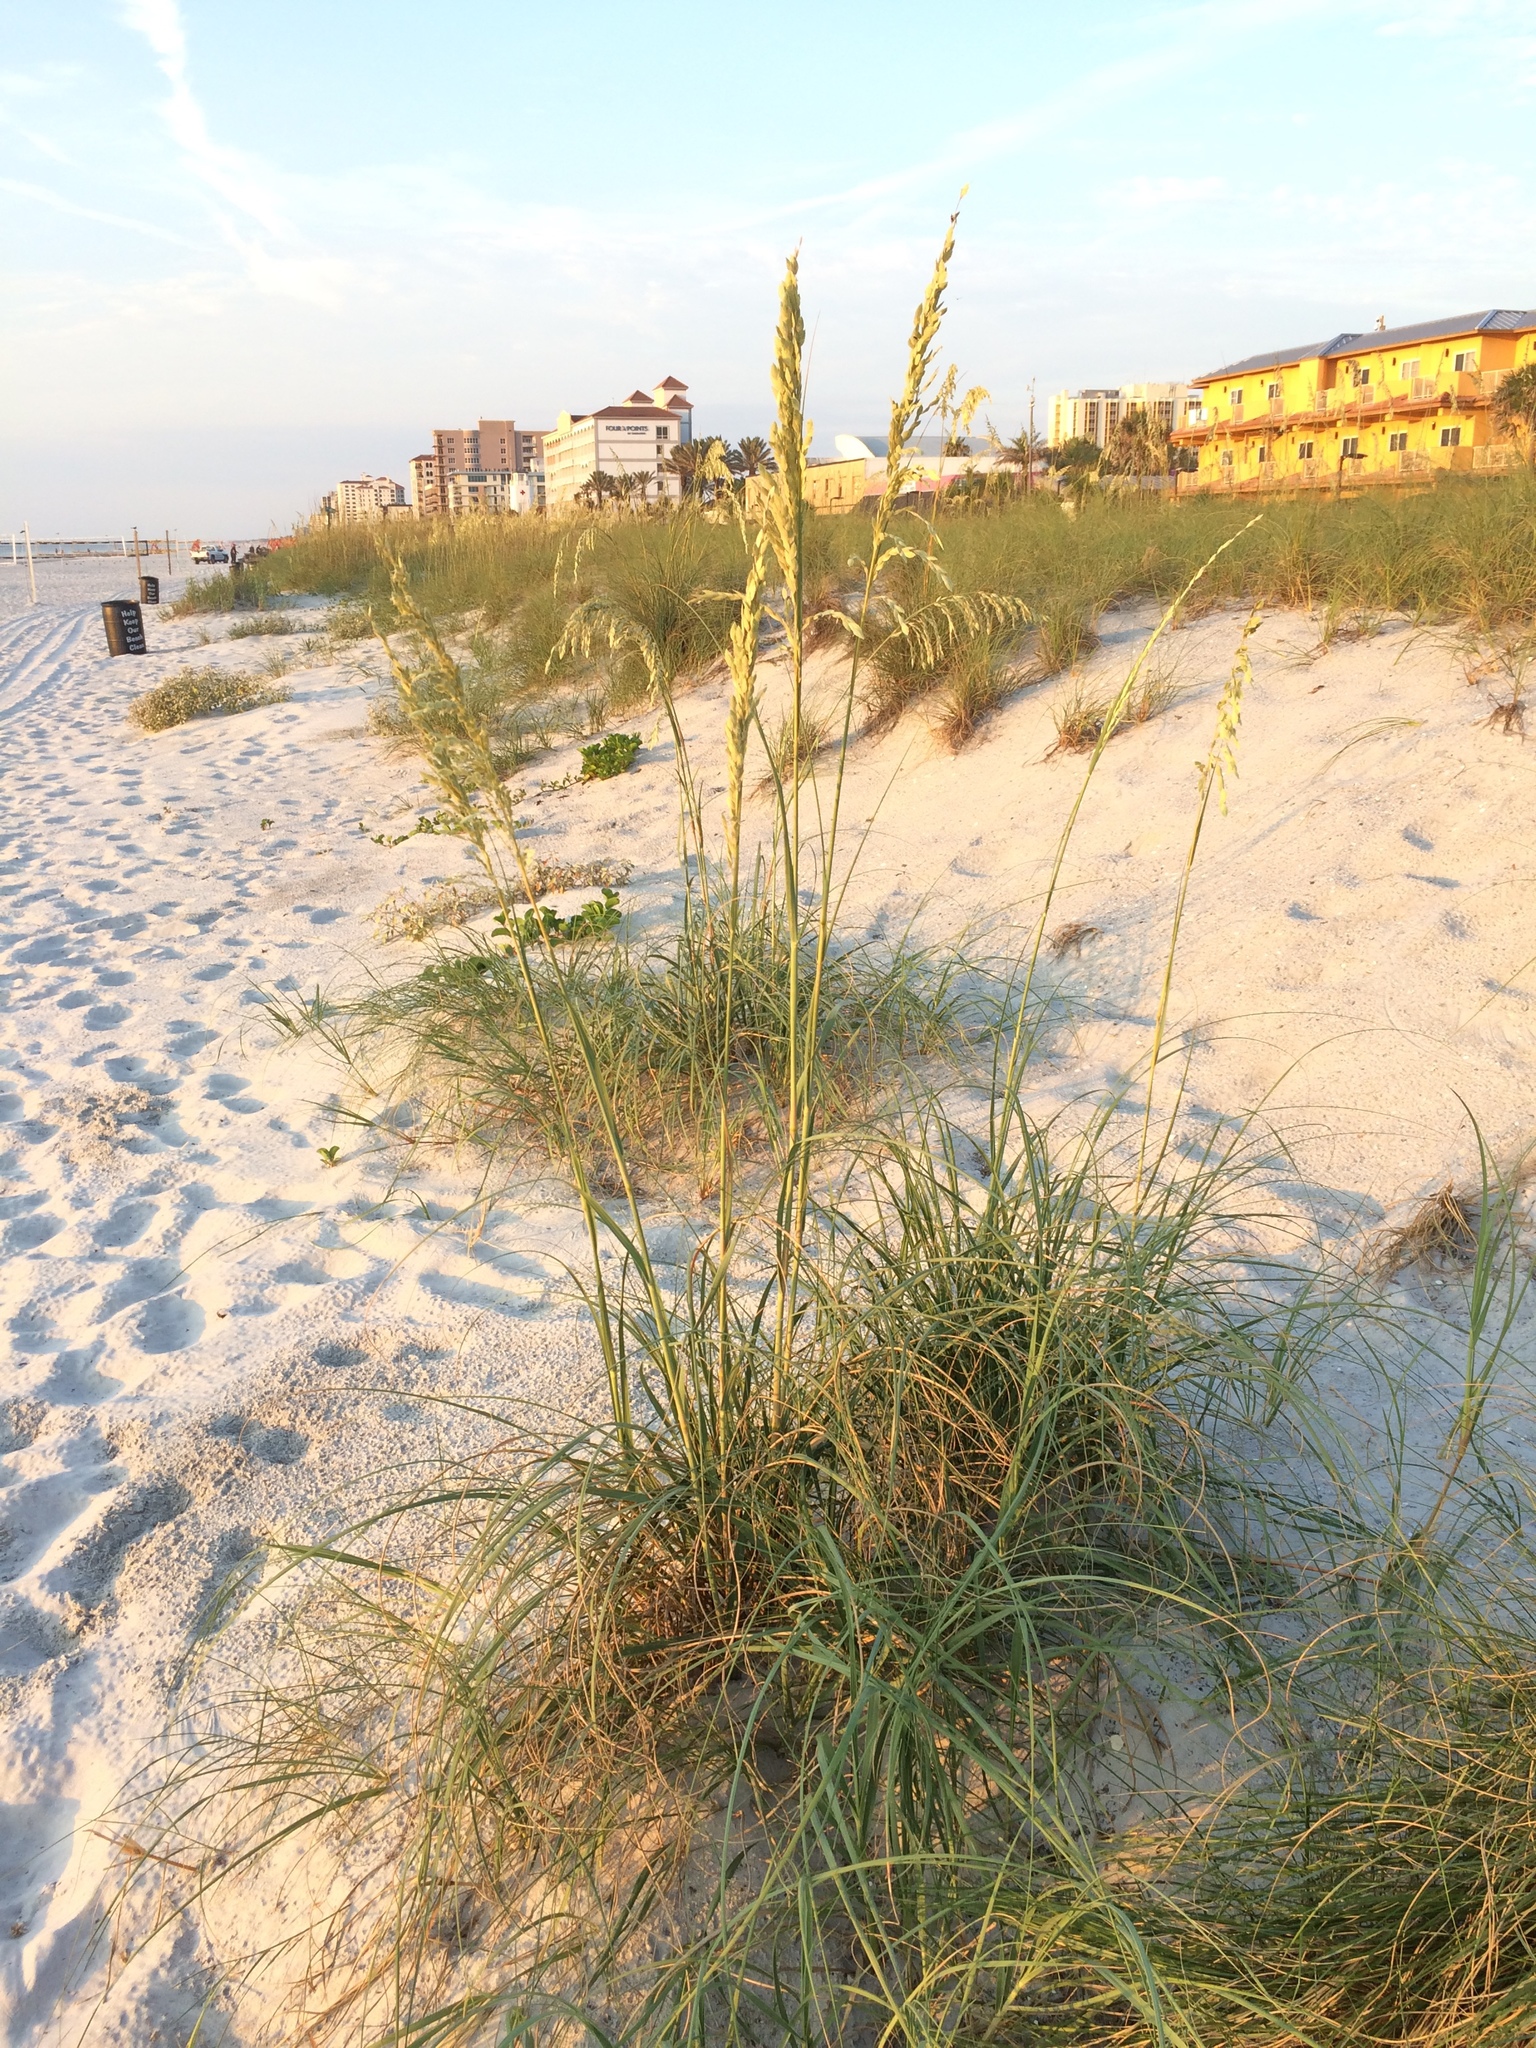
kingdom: Plantae
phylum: Tracheophyta
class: Liliopsida
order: Poales
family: Poaceae
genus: Uniola
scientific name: Uniola paniculata
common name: Seaside-oats
